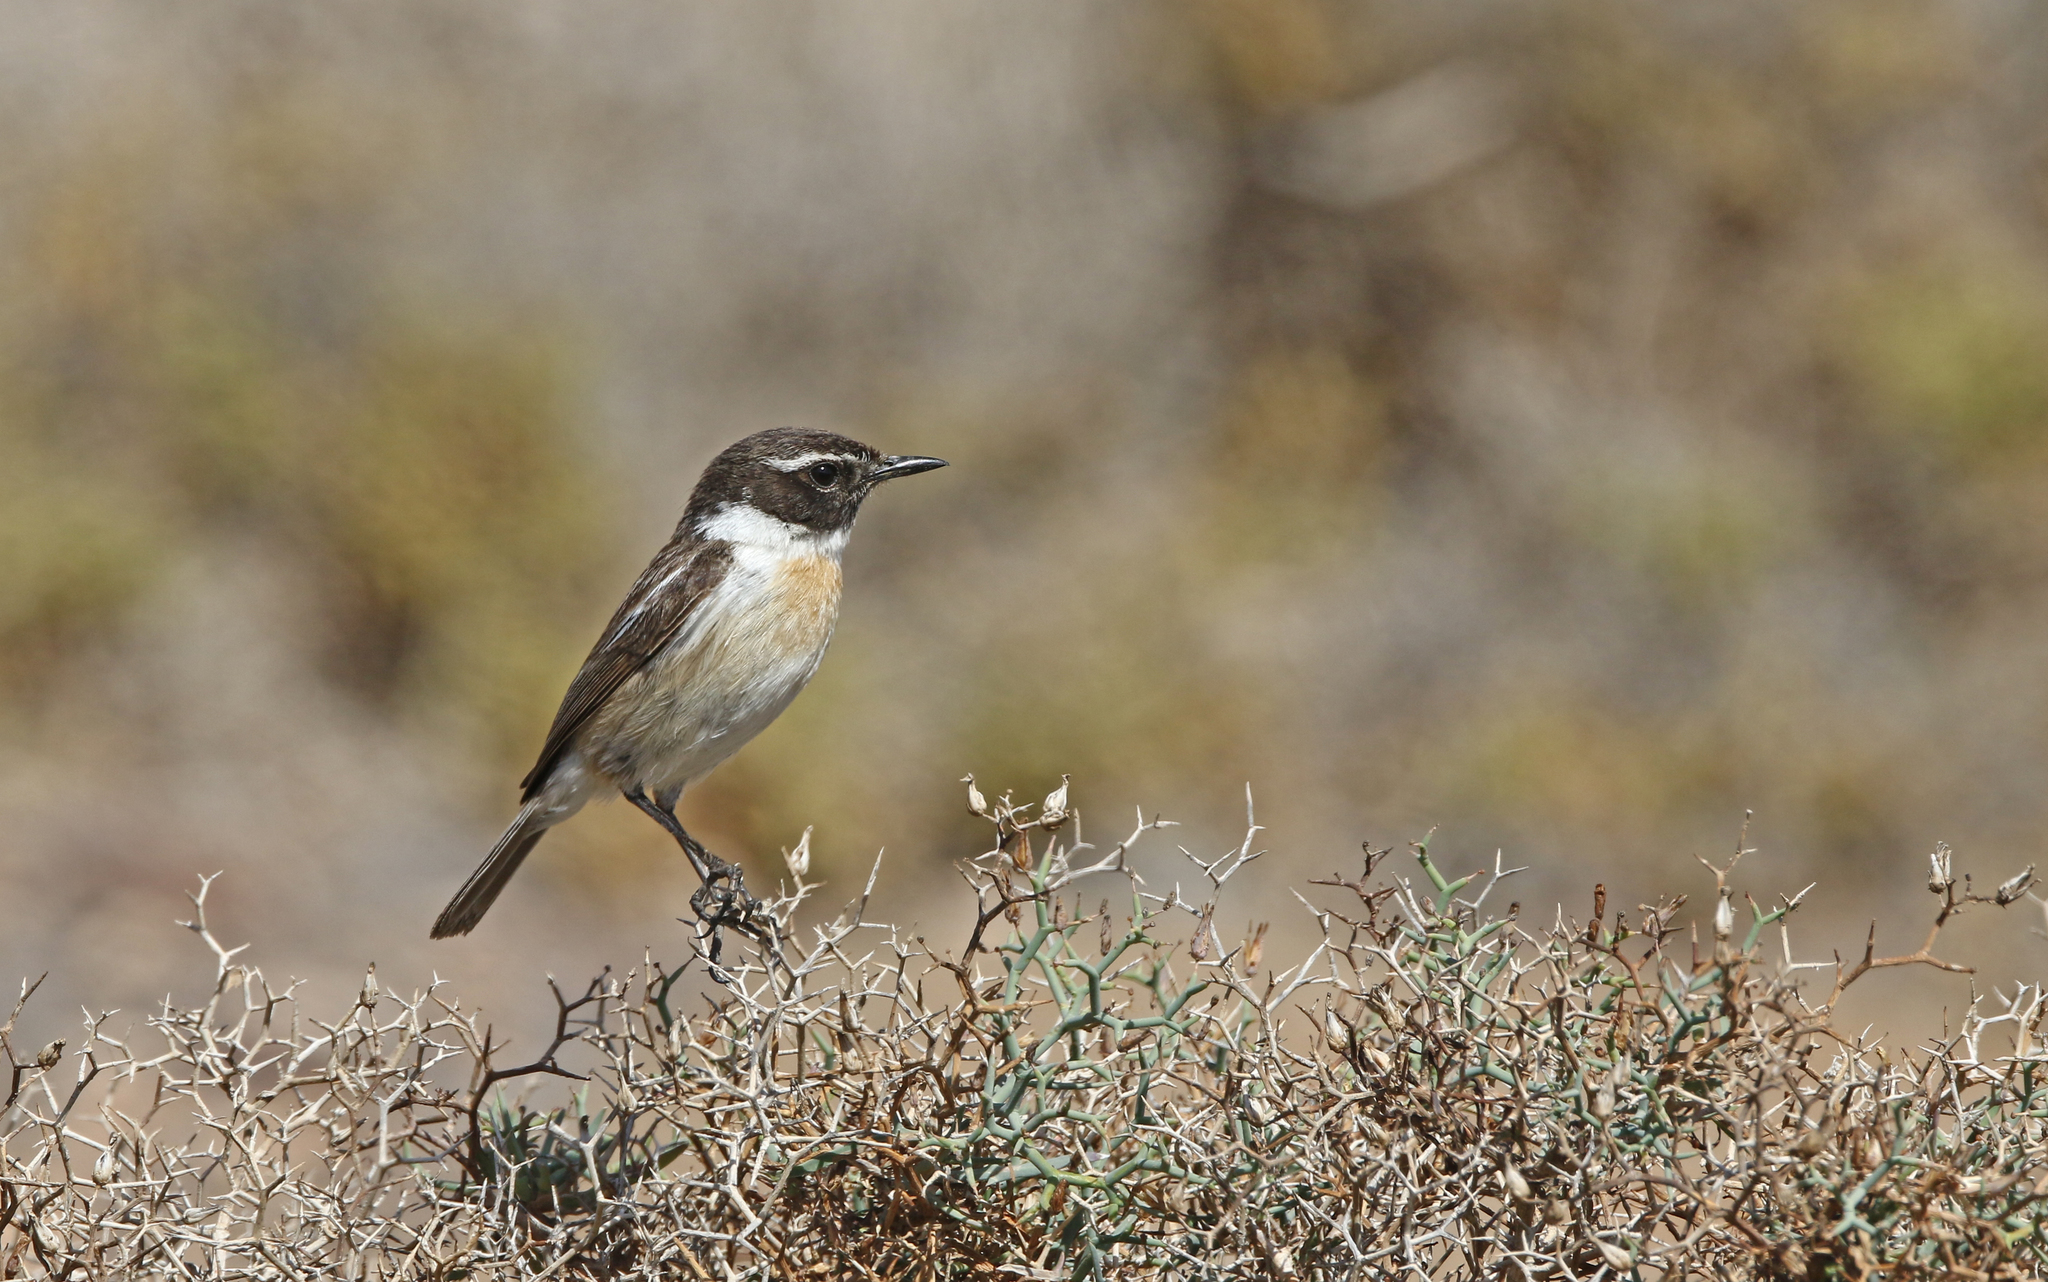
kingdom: Animalia
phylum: Chordata
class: Aves
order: Passeriformes
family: Muscicapidae
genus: Saxicola
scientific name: Saxicola dacotiae
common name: Canary islands stonechat
